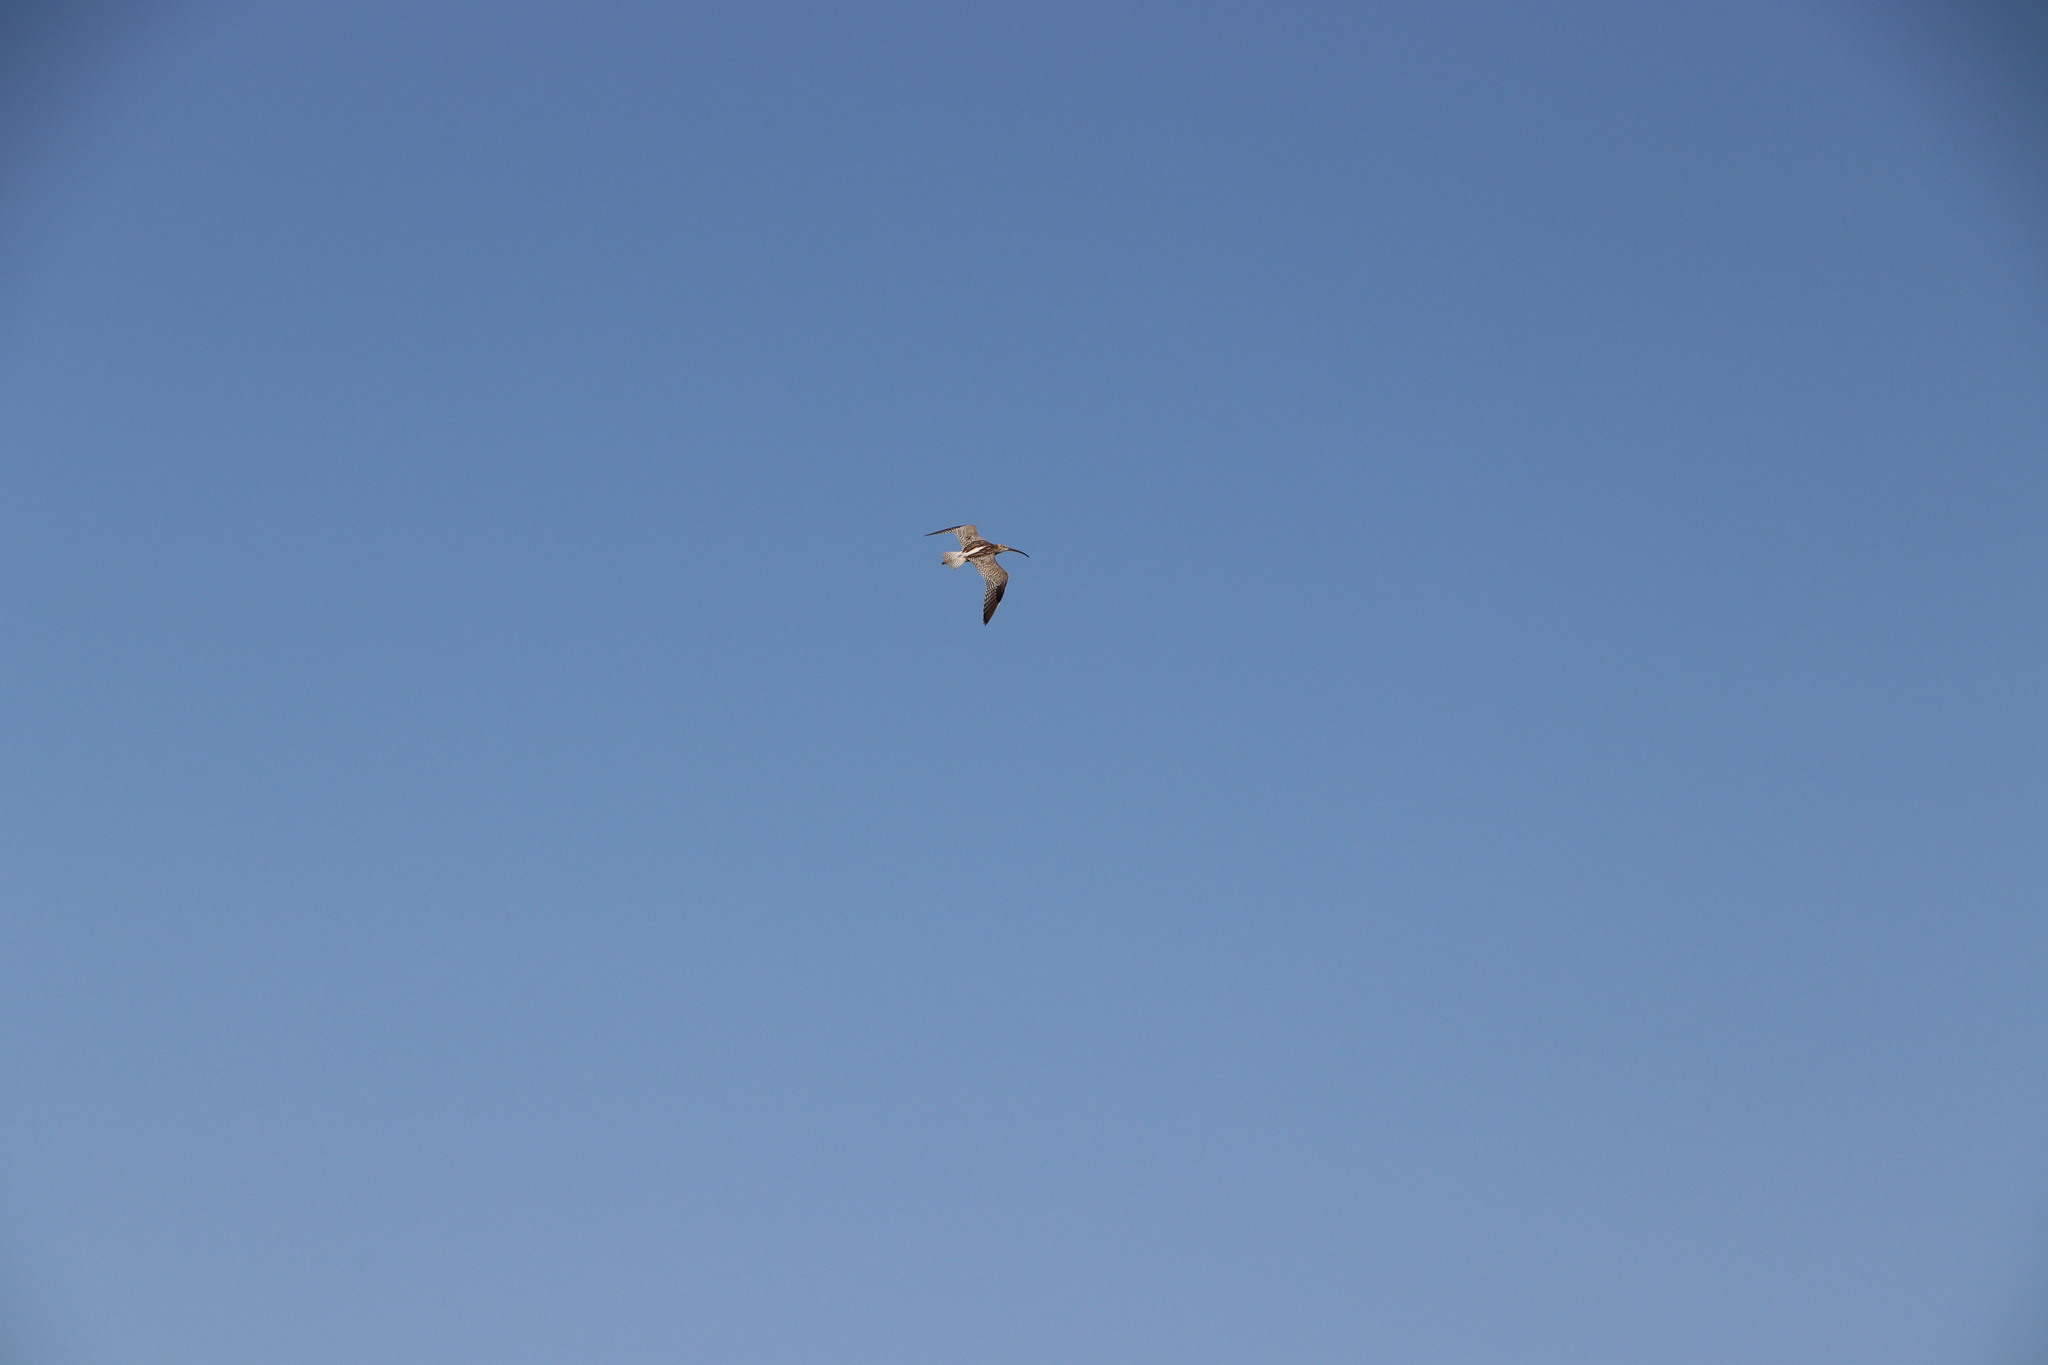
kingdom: Animalia
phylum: Chordata
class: Aves
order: Charadriiformes
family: Scolopacidae
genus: Numenius
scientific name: Numenius arquata
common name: Eurasian curlew
